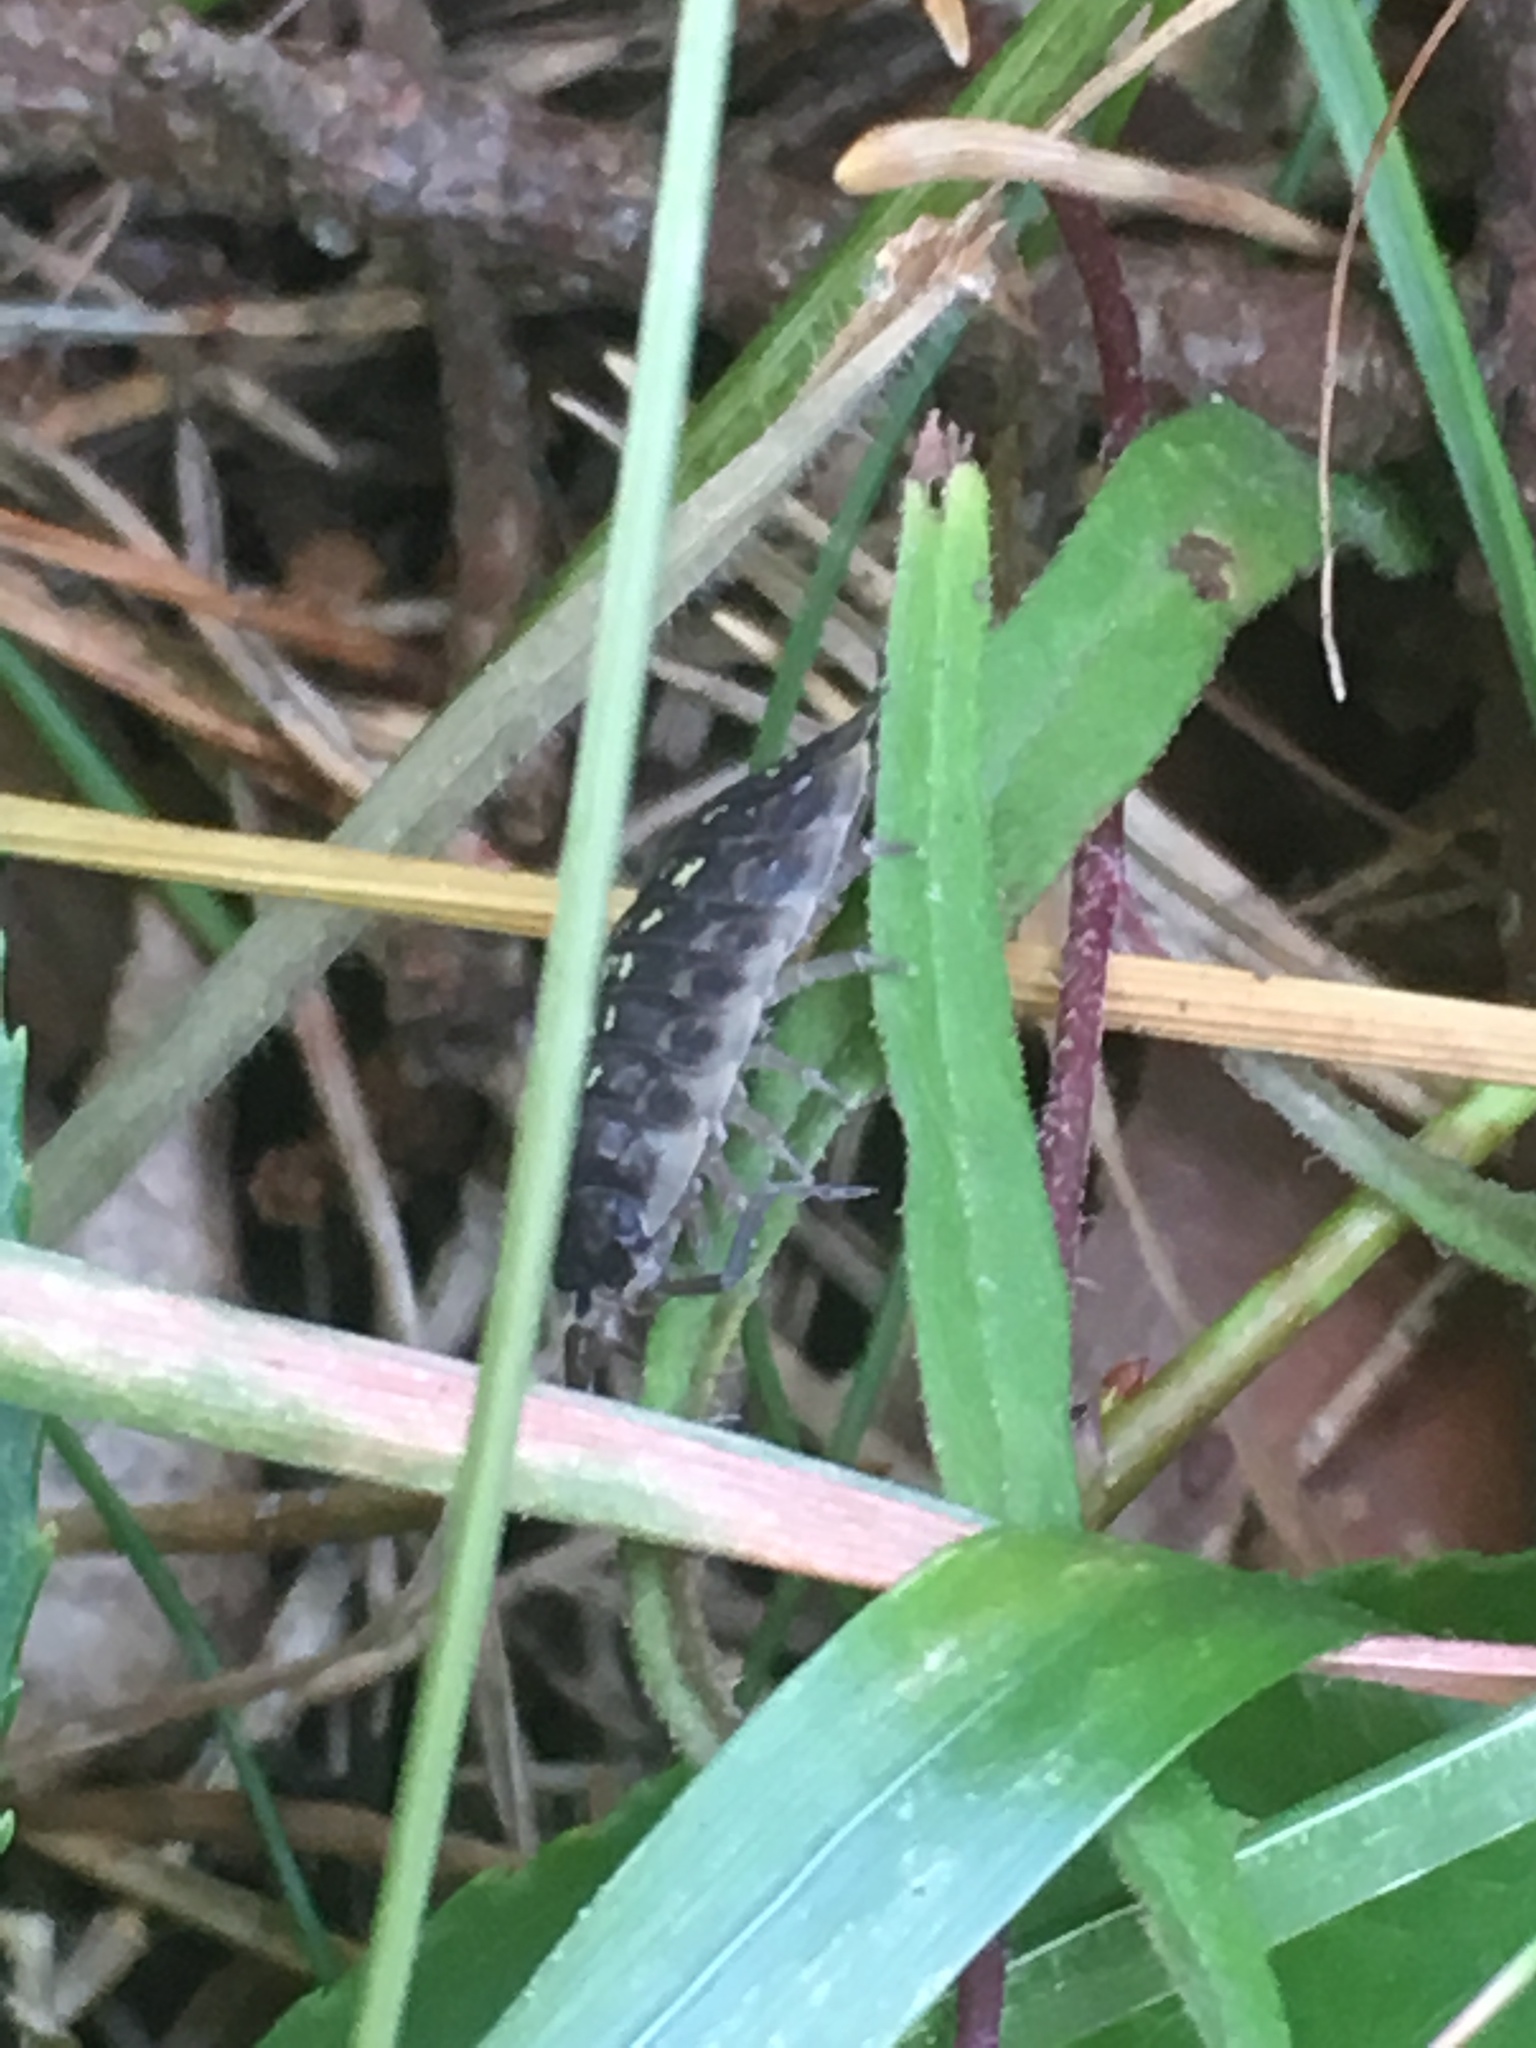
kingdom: Animalia
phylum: Arthropoda
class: Malacostraca
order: Isopoda
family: Oniscidae
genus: Oniscus
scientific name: Oniscus asellus
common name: Common shiny woodlouse
